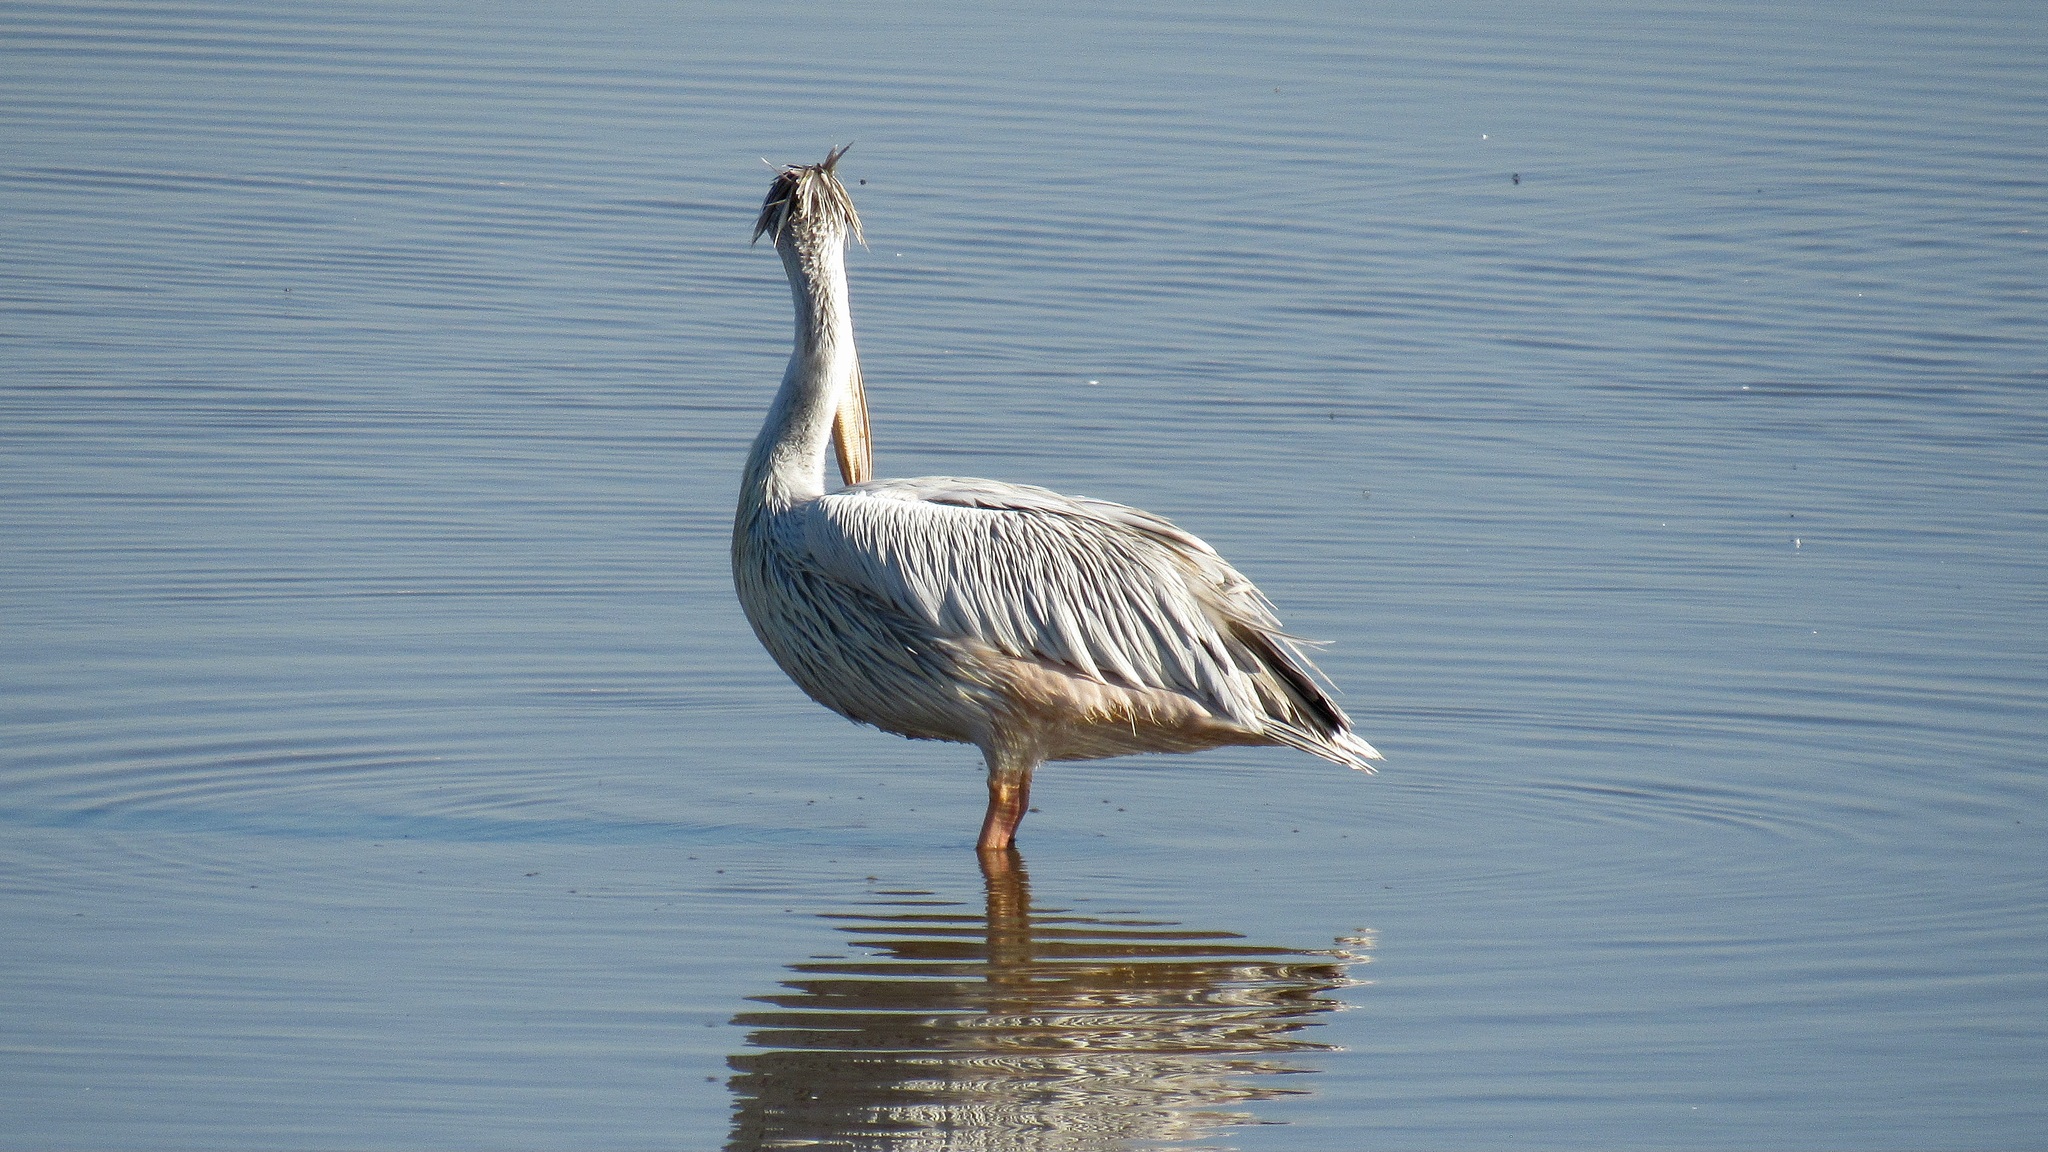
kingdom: Animalia
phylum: Chordata
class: Aves
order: Pelecaniformes
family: Pelecanidae
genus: Pelecanus
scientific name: Pelecanus rufescens
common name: Pink-backed pelican
